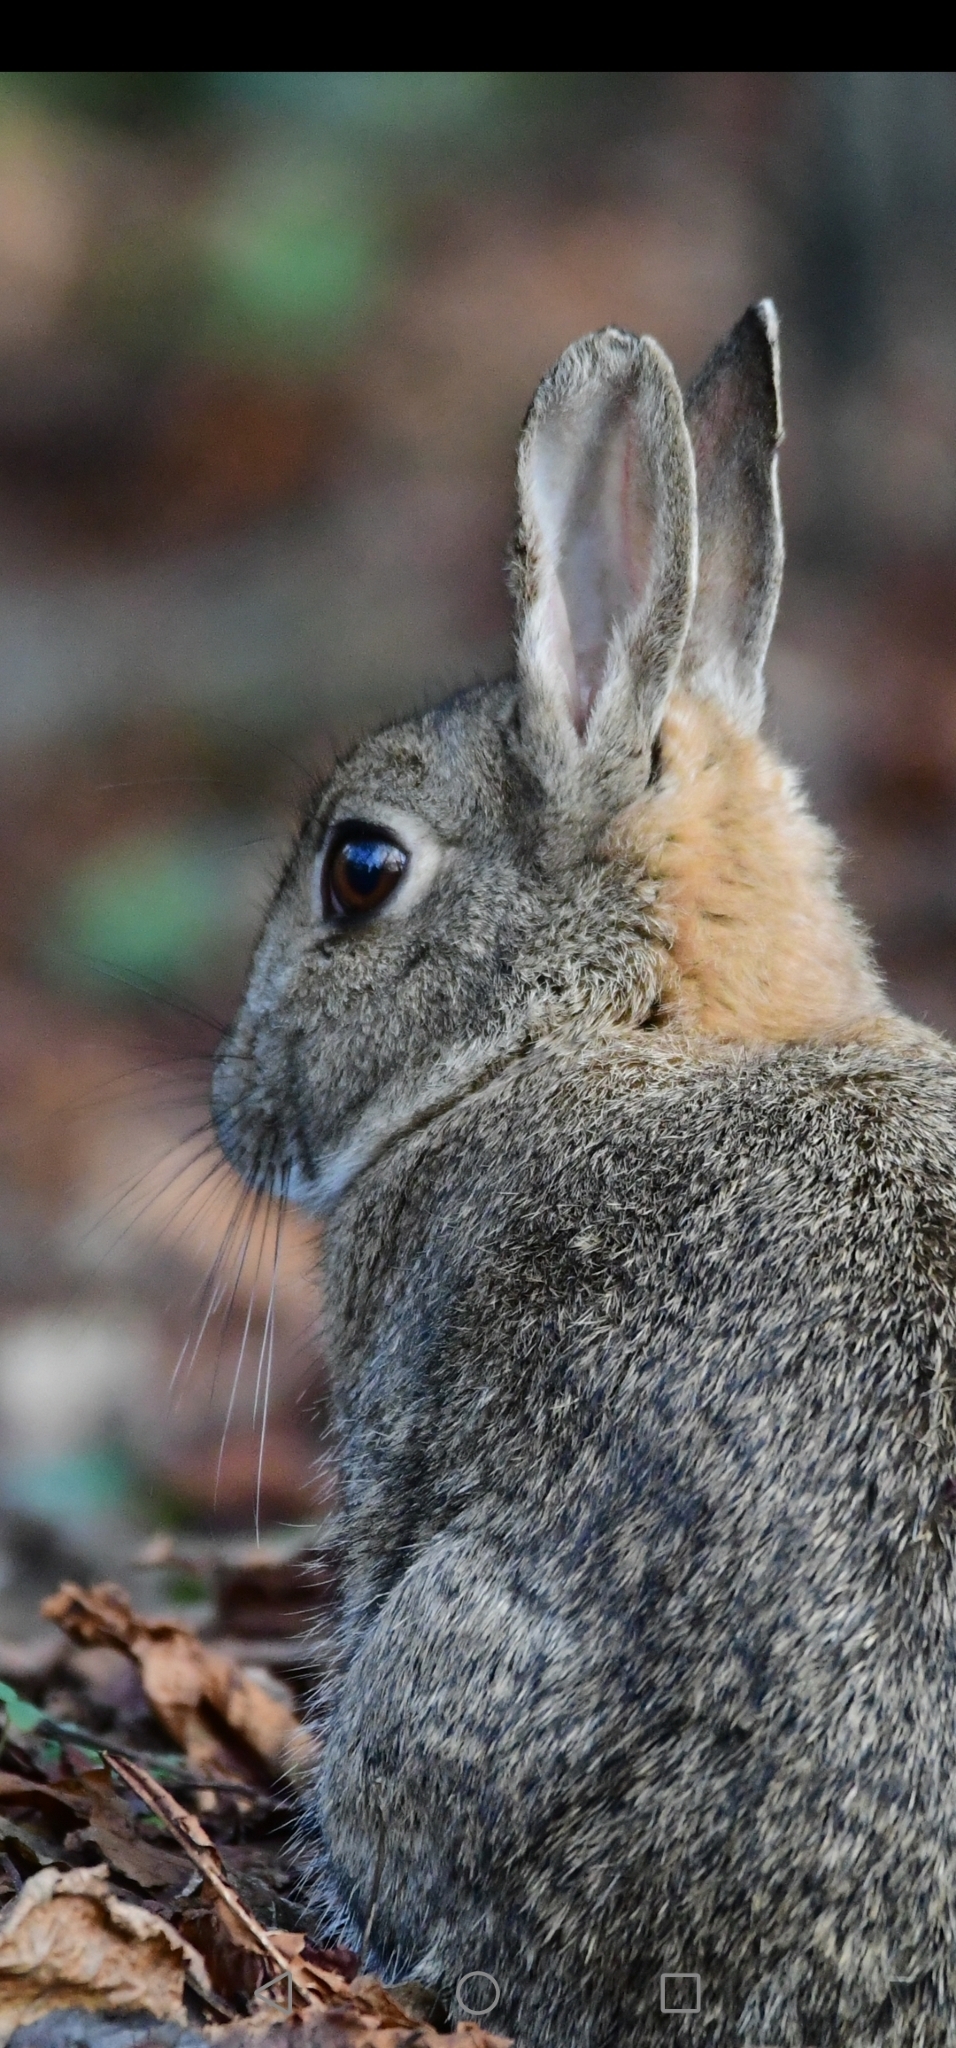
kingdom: Animalia
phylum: Chordata
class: Mammalia
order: Lagomorpha
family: Leporidae
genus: Oryctolagus
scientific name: Oryctolagus cuniculus
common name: European rabbit
